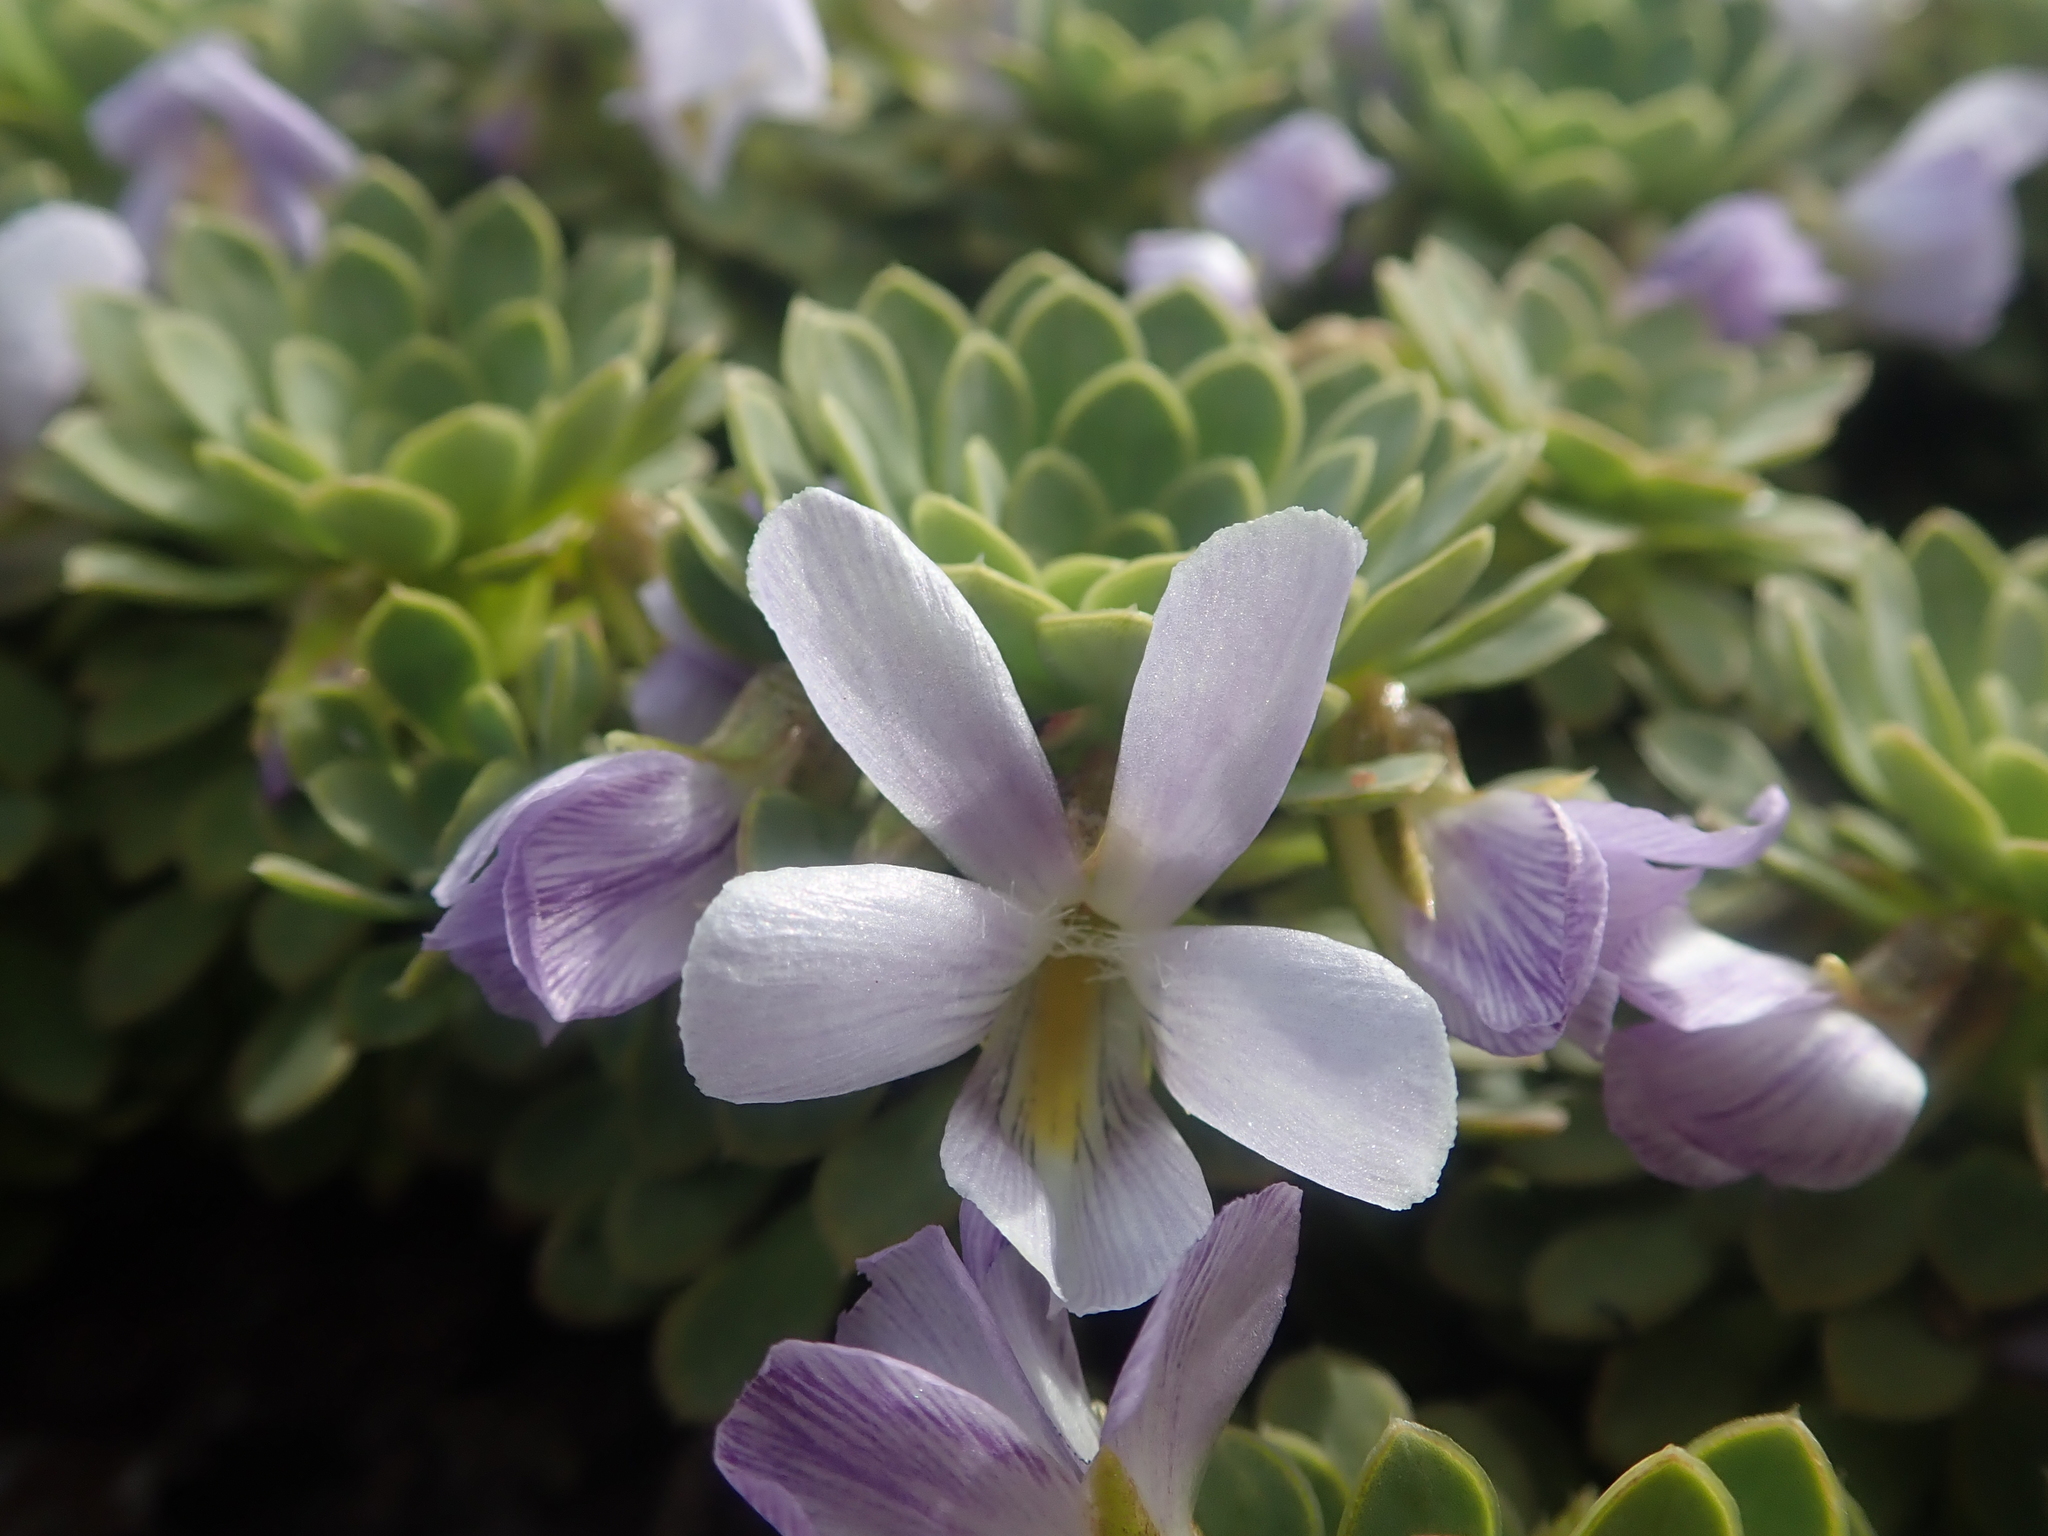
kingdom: Plantae
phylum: Tracheophyta
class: Magnoliopsida
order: Malpighiales
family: Violaceae
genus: Viola
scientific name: Viola cotyledon
